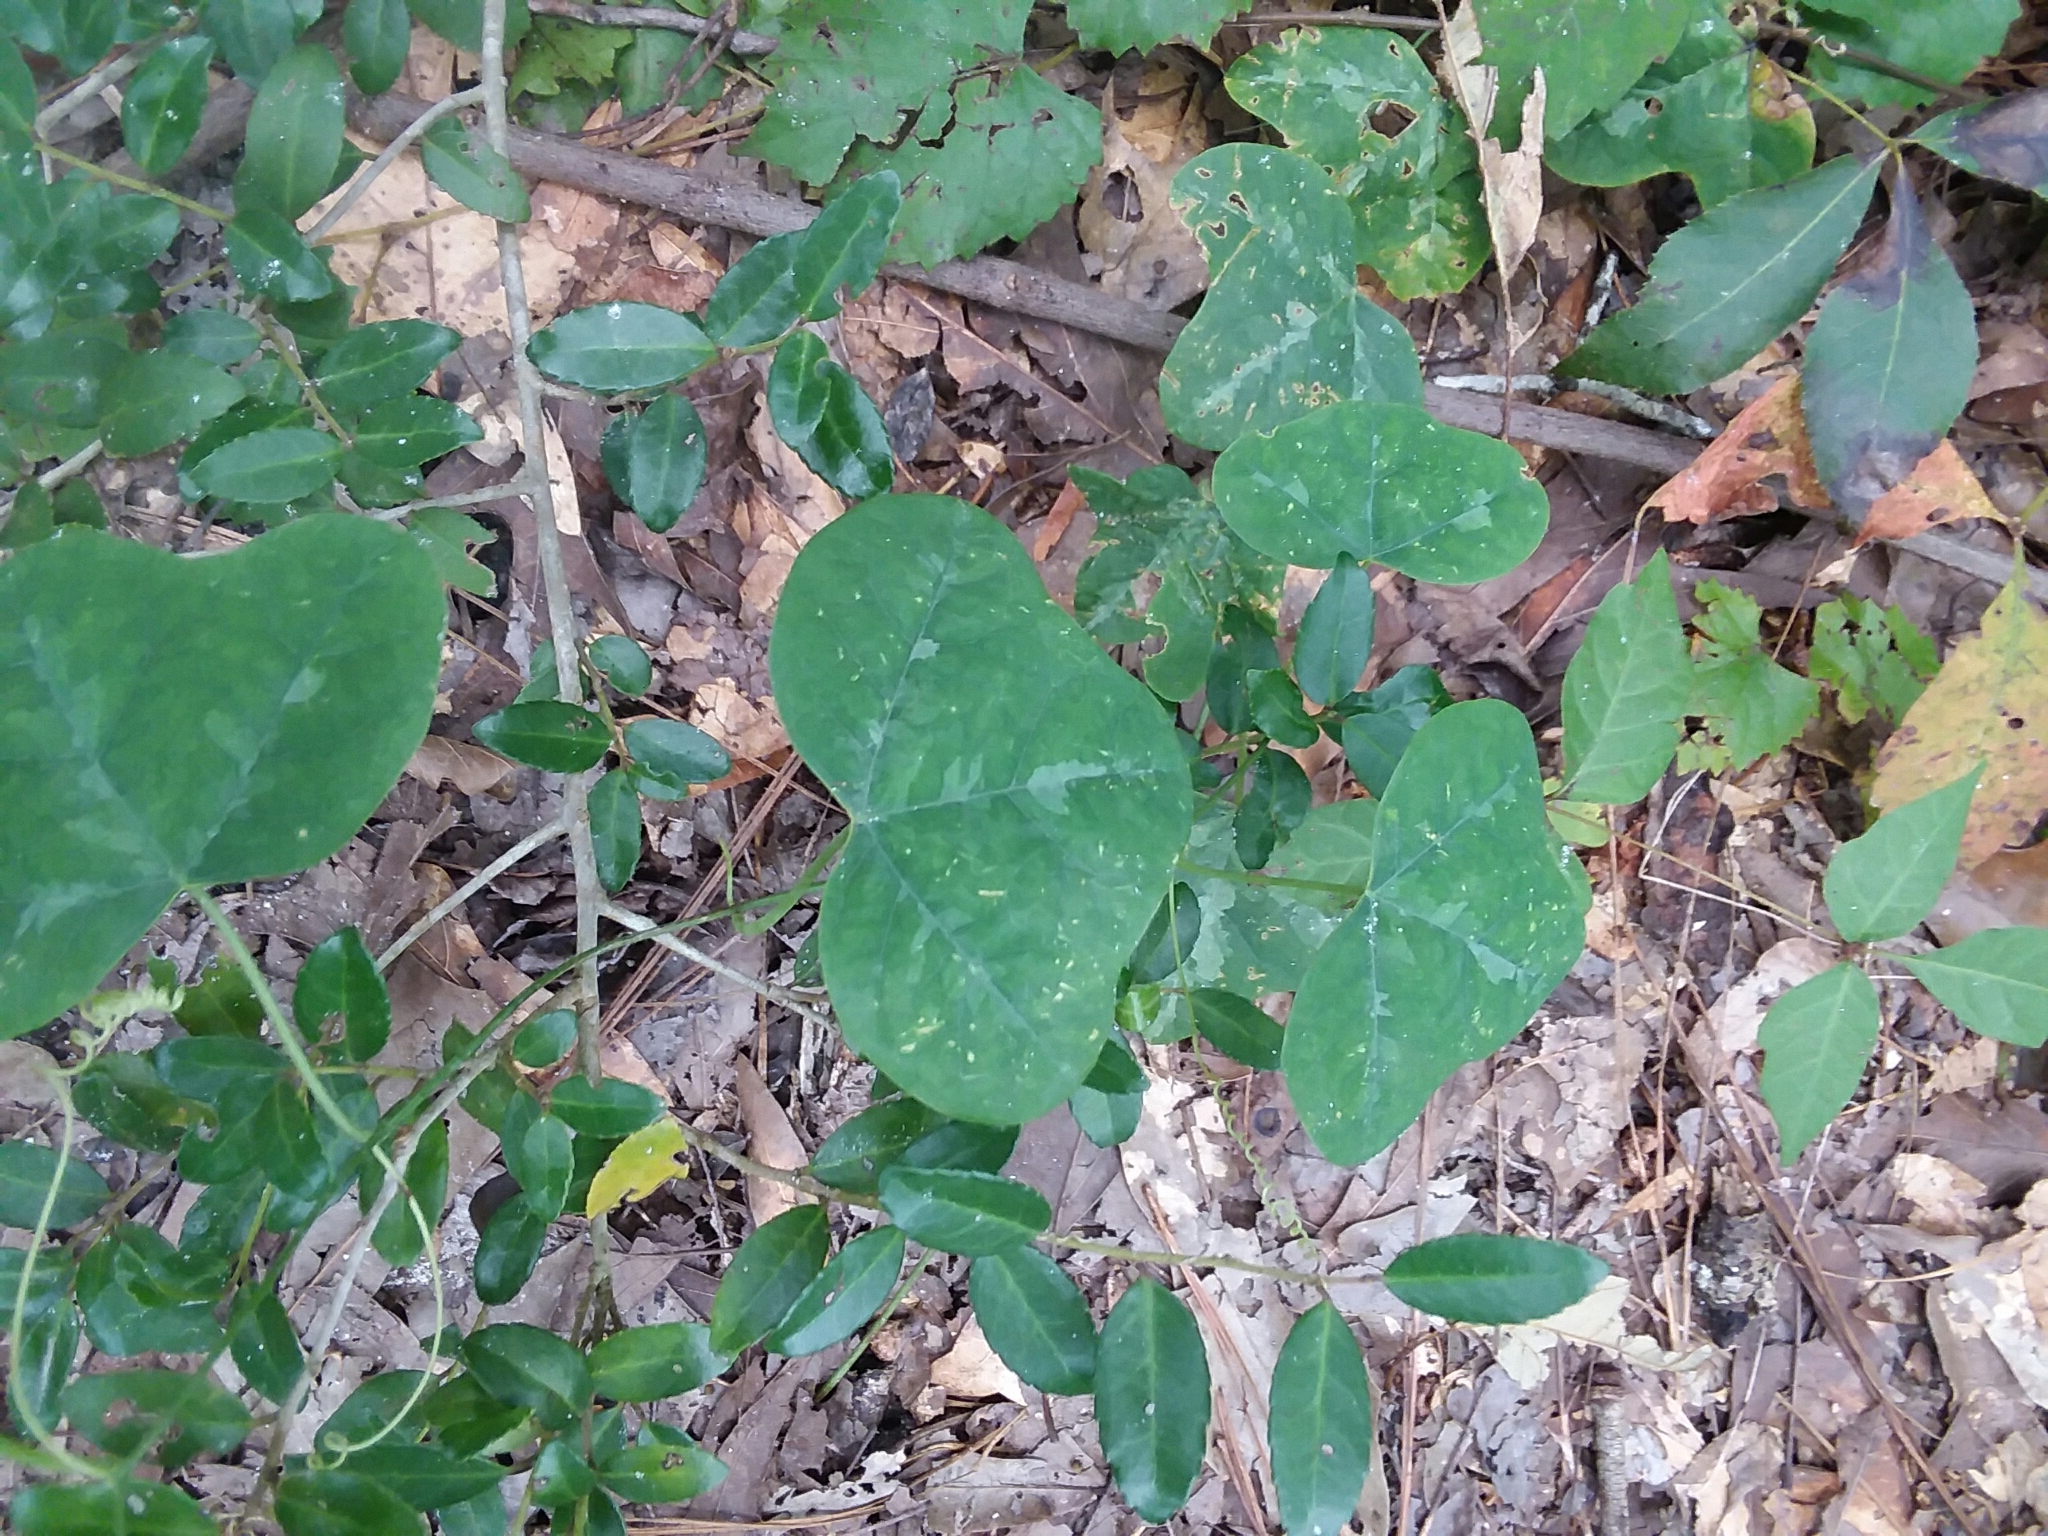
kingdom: Plantae
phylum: Tracheophyta
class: Magnoliopsida
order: Malpighiales
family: Passifloraceae
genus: Passiflora
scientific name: Passiflora lutea
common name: Yellow passionflower
